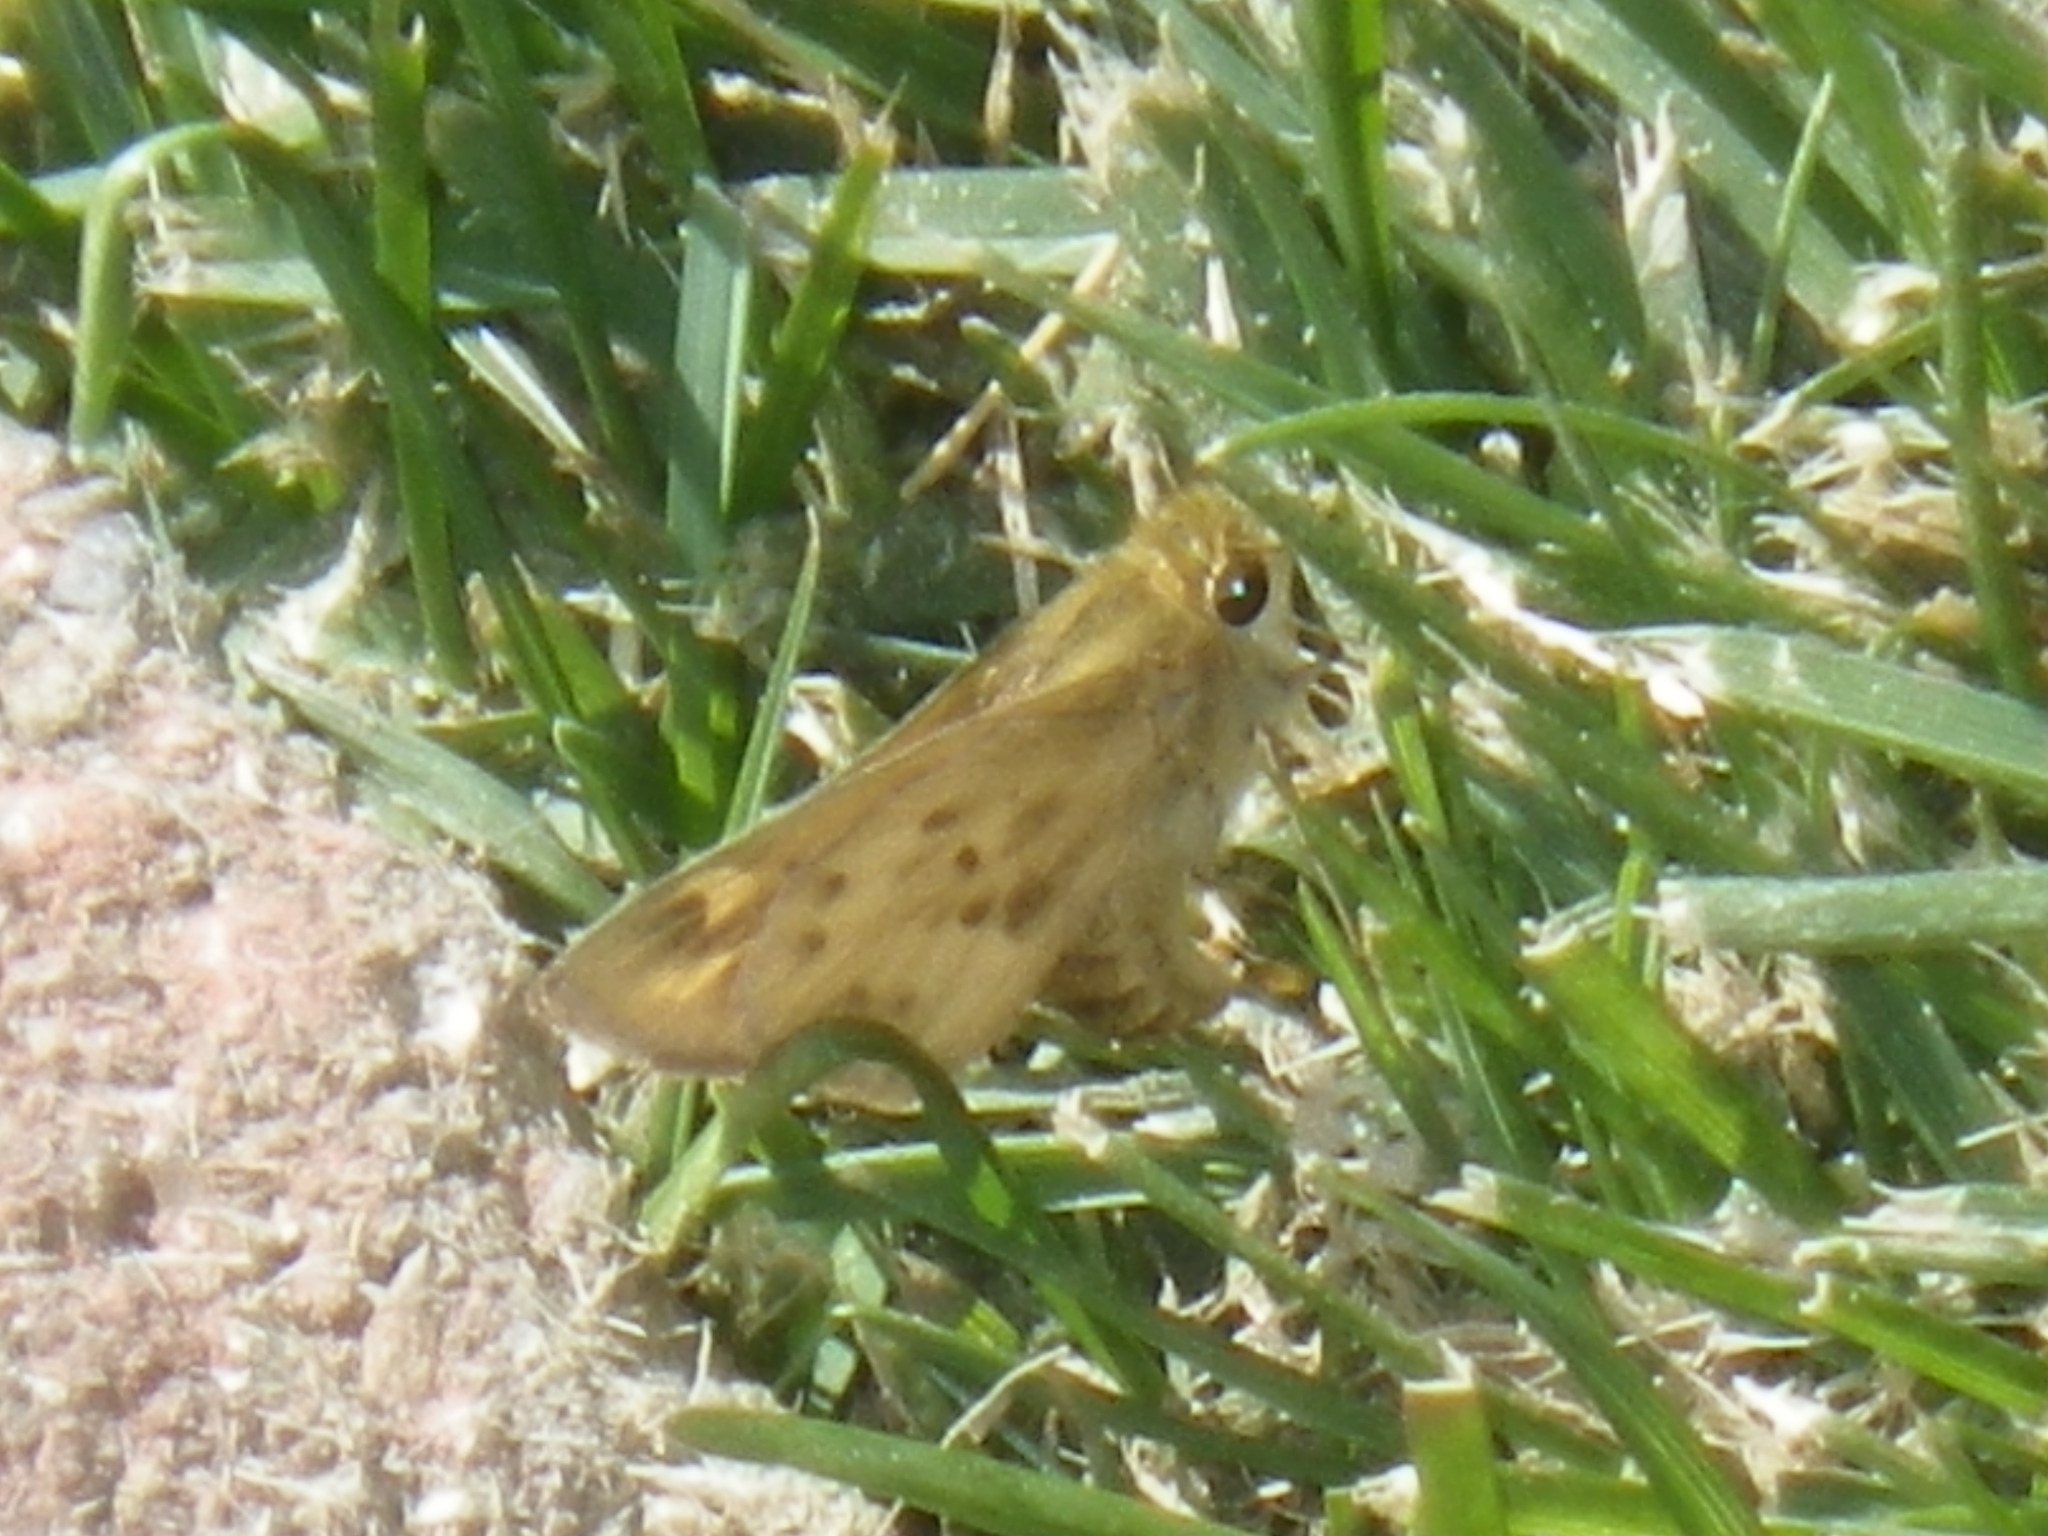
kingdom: Animalia
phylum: Arthropoda
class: Insecta
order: Lepidoptera
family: Hesperiidae
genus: Hylephila
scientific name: Hylephila phyleus
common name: Fiery skipper
